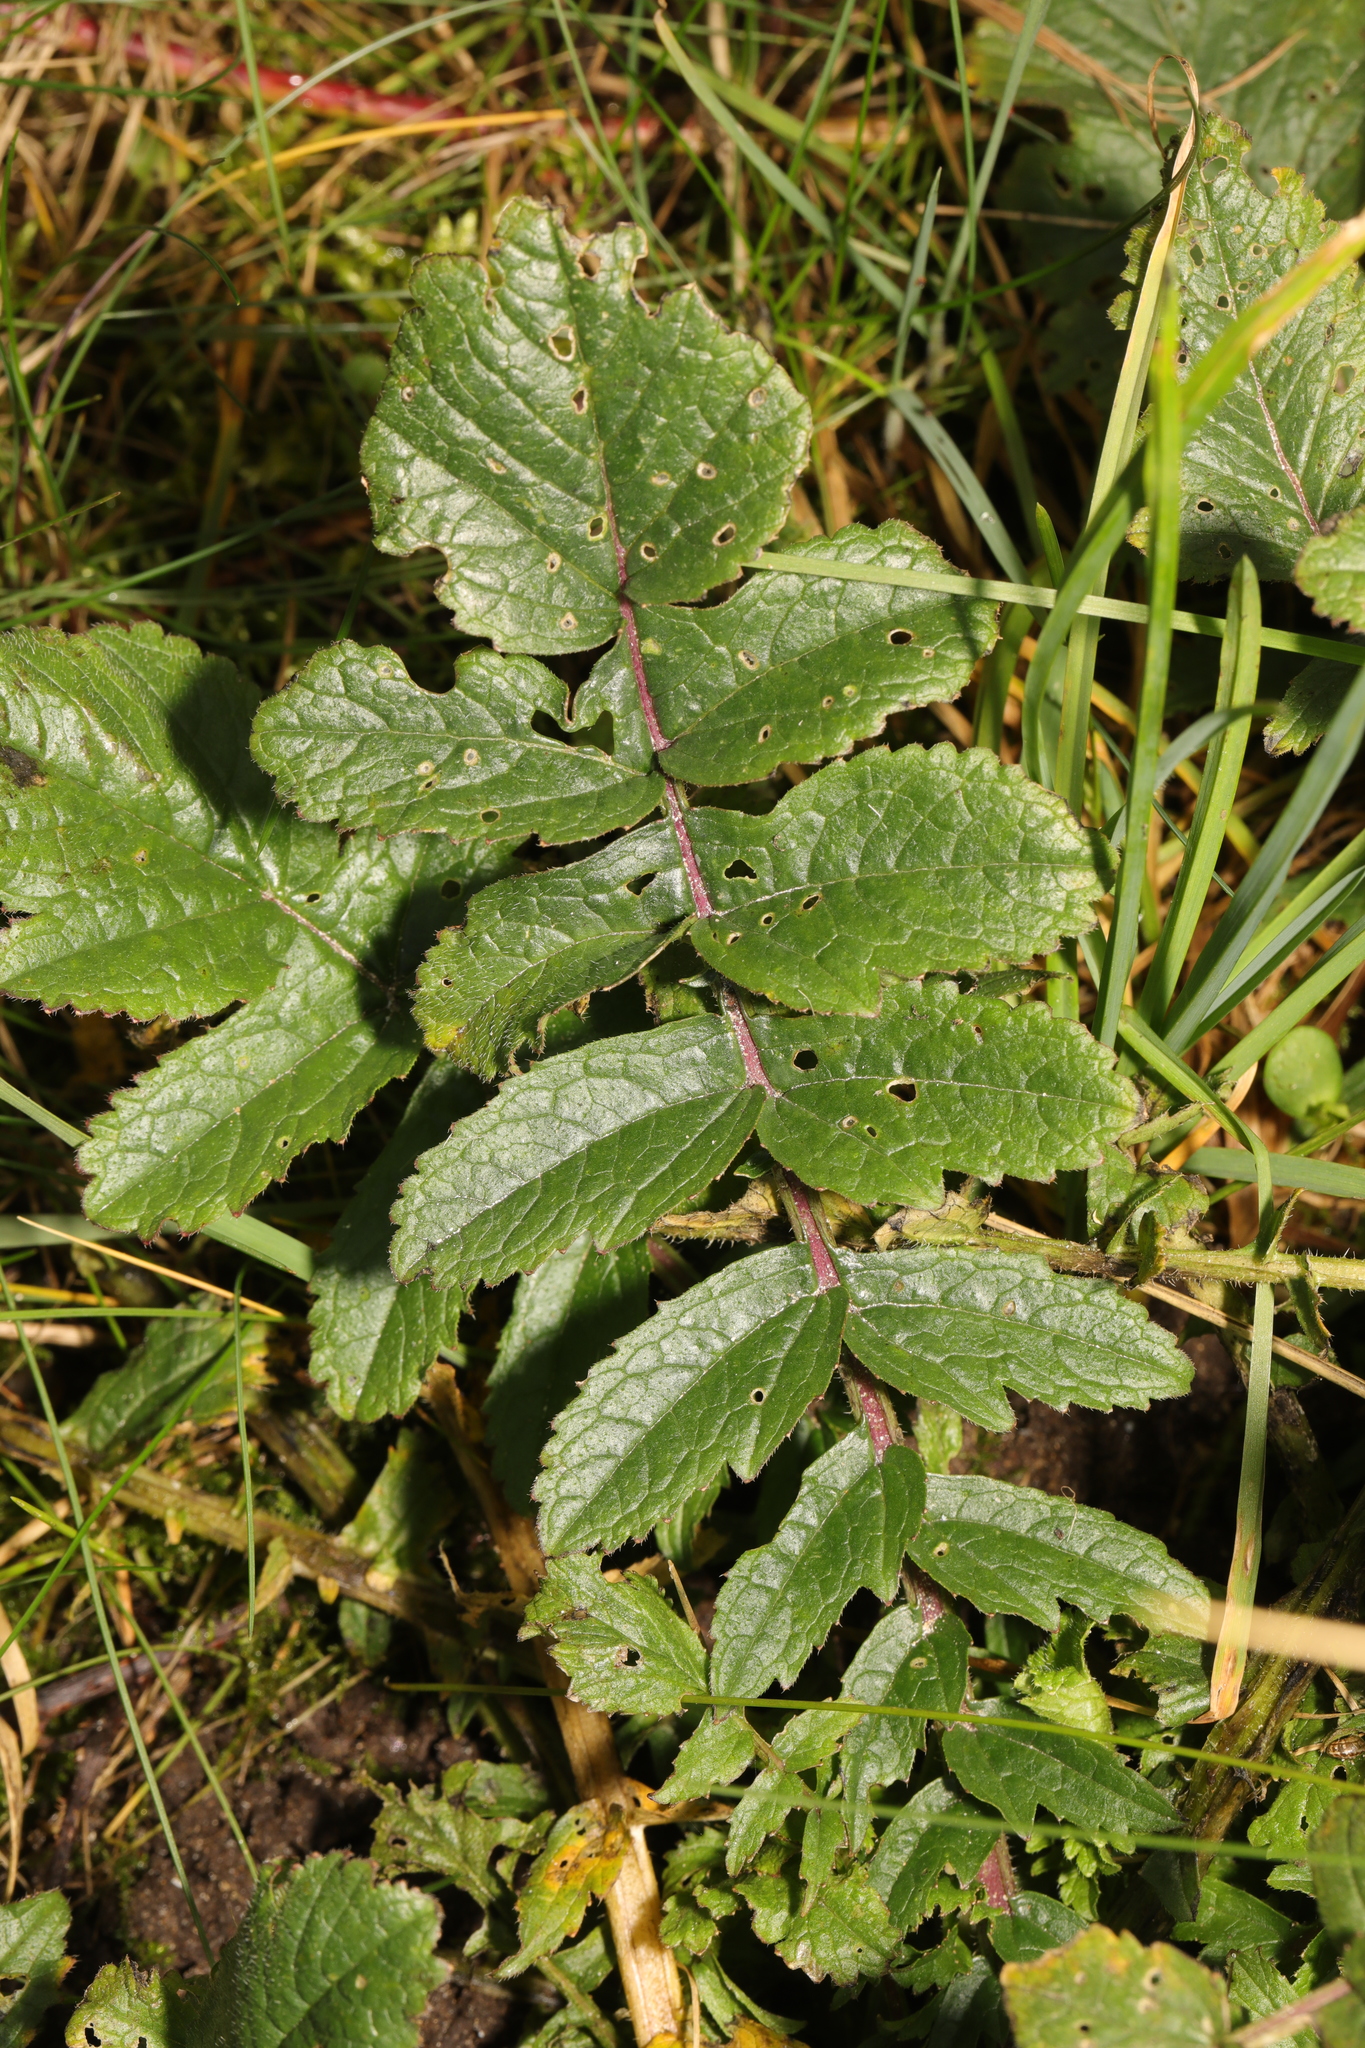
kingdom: Plantae
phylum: Tracheophyta
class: Magnoliopsida
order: Brassicales
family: Brassicaceae
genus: Raphanus
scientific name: Raphanus raphanistrum
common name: Wild radish
